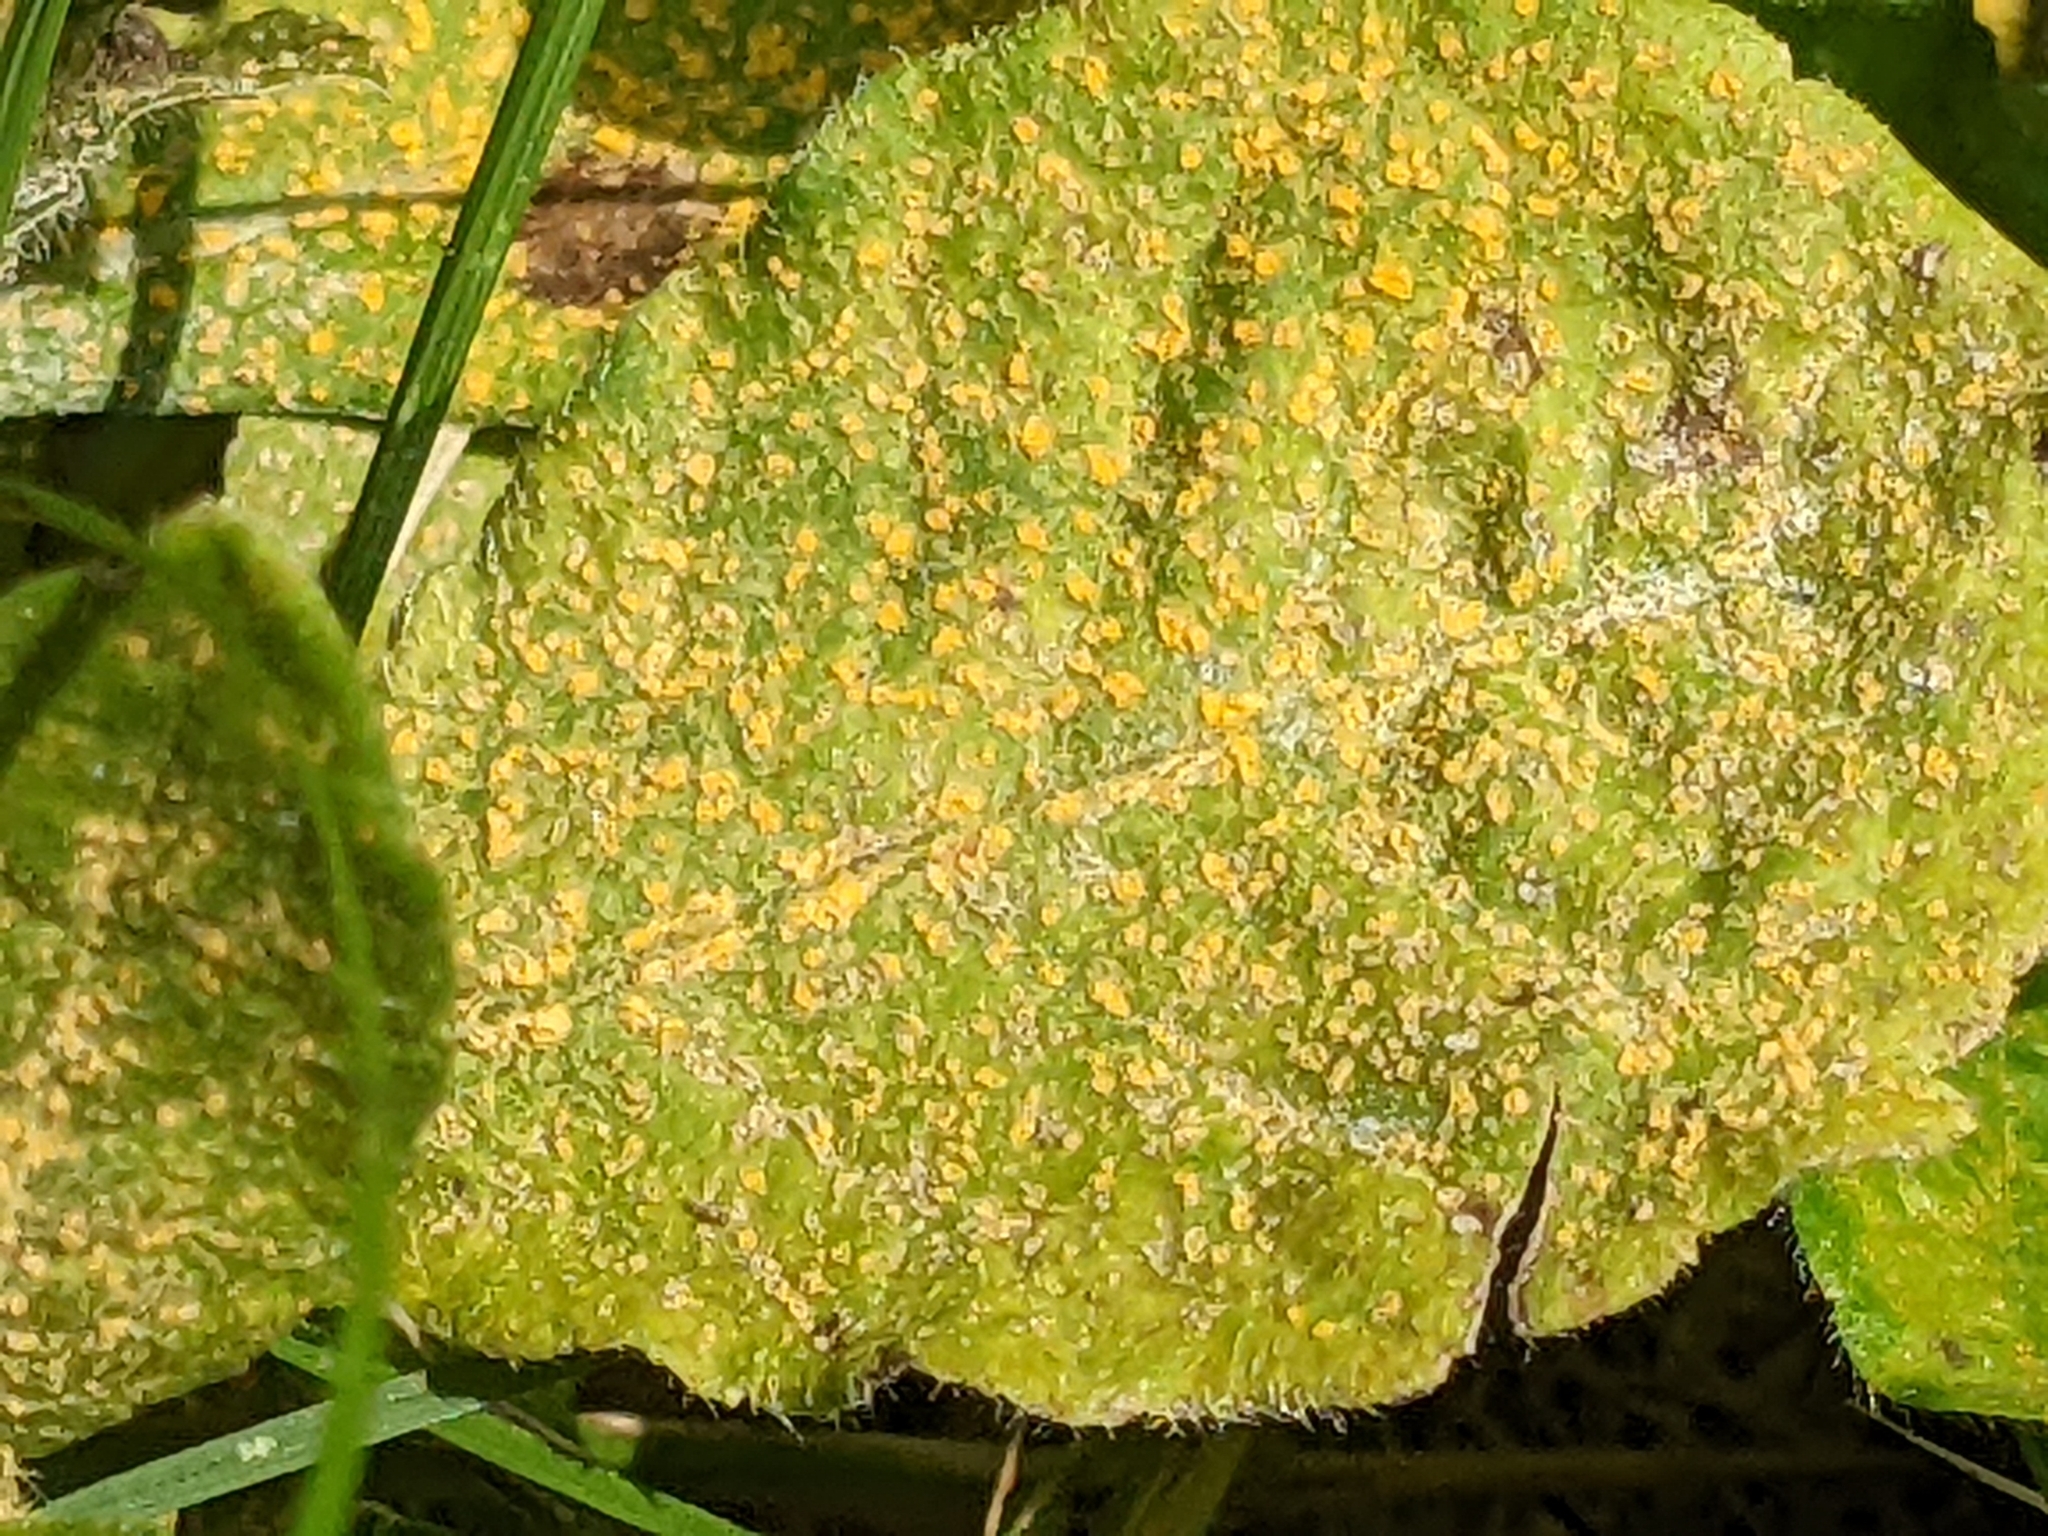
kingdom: Fungi
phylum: Basidiomycota
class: Pucciniomycetes
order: Pucciniales
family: Coleosporiaceae
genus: Coleosporium
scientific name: Coleosporium asterum
